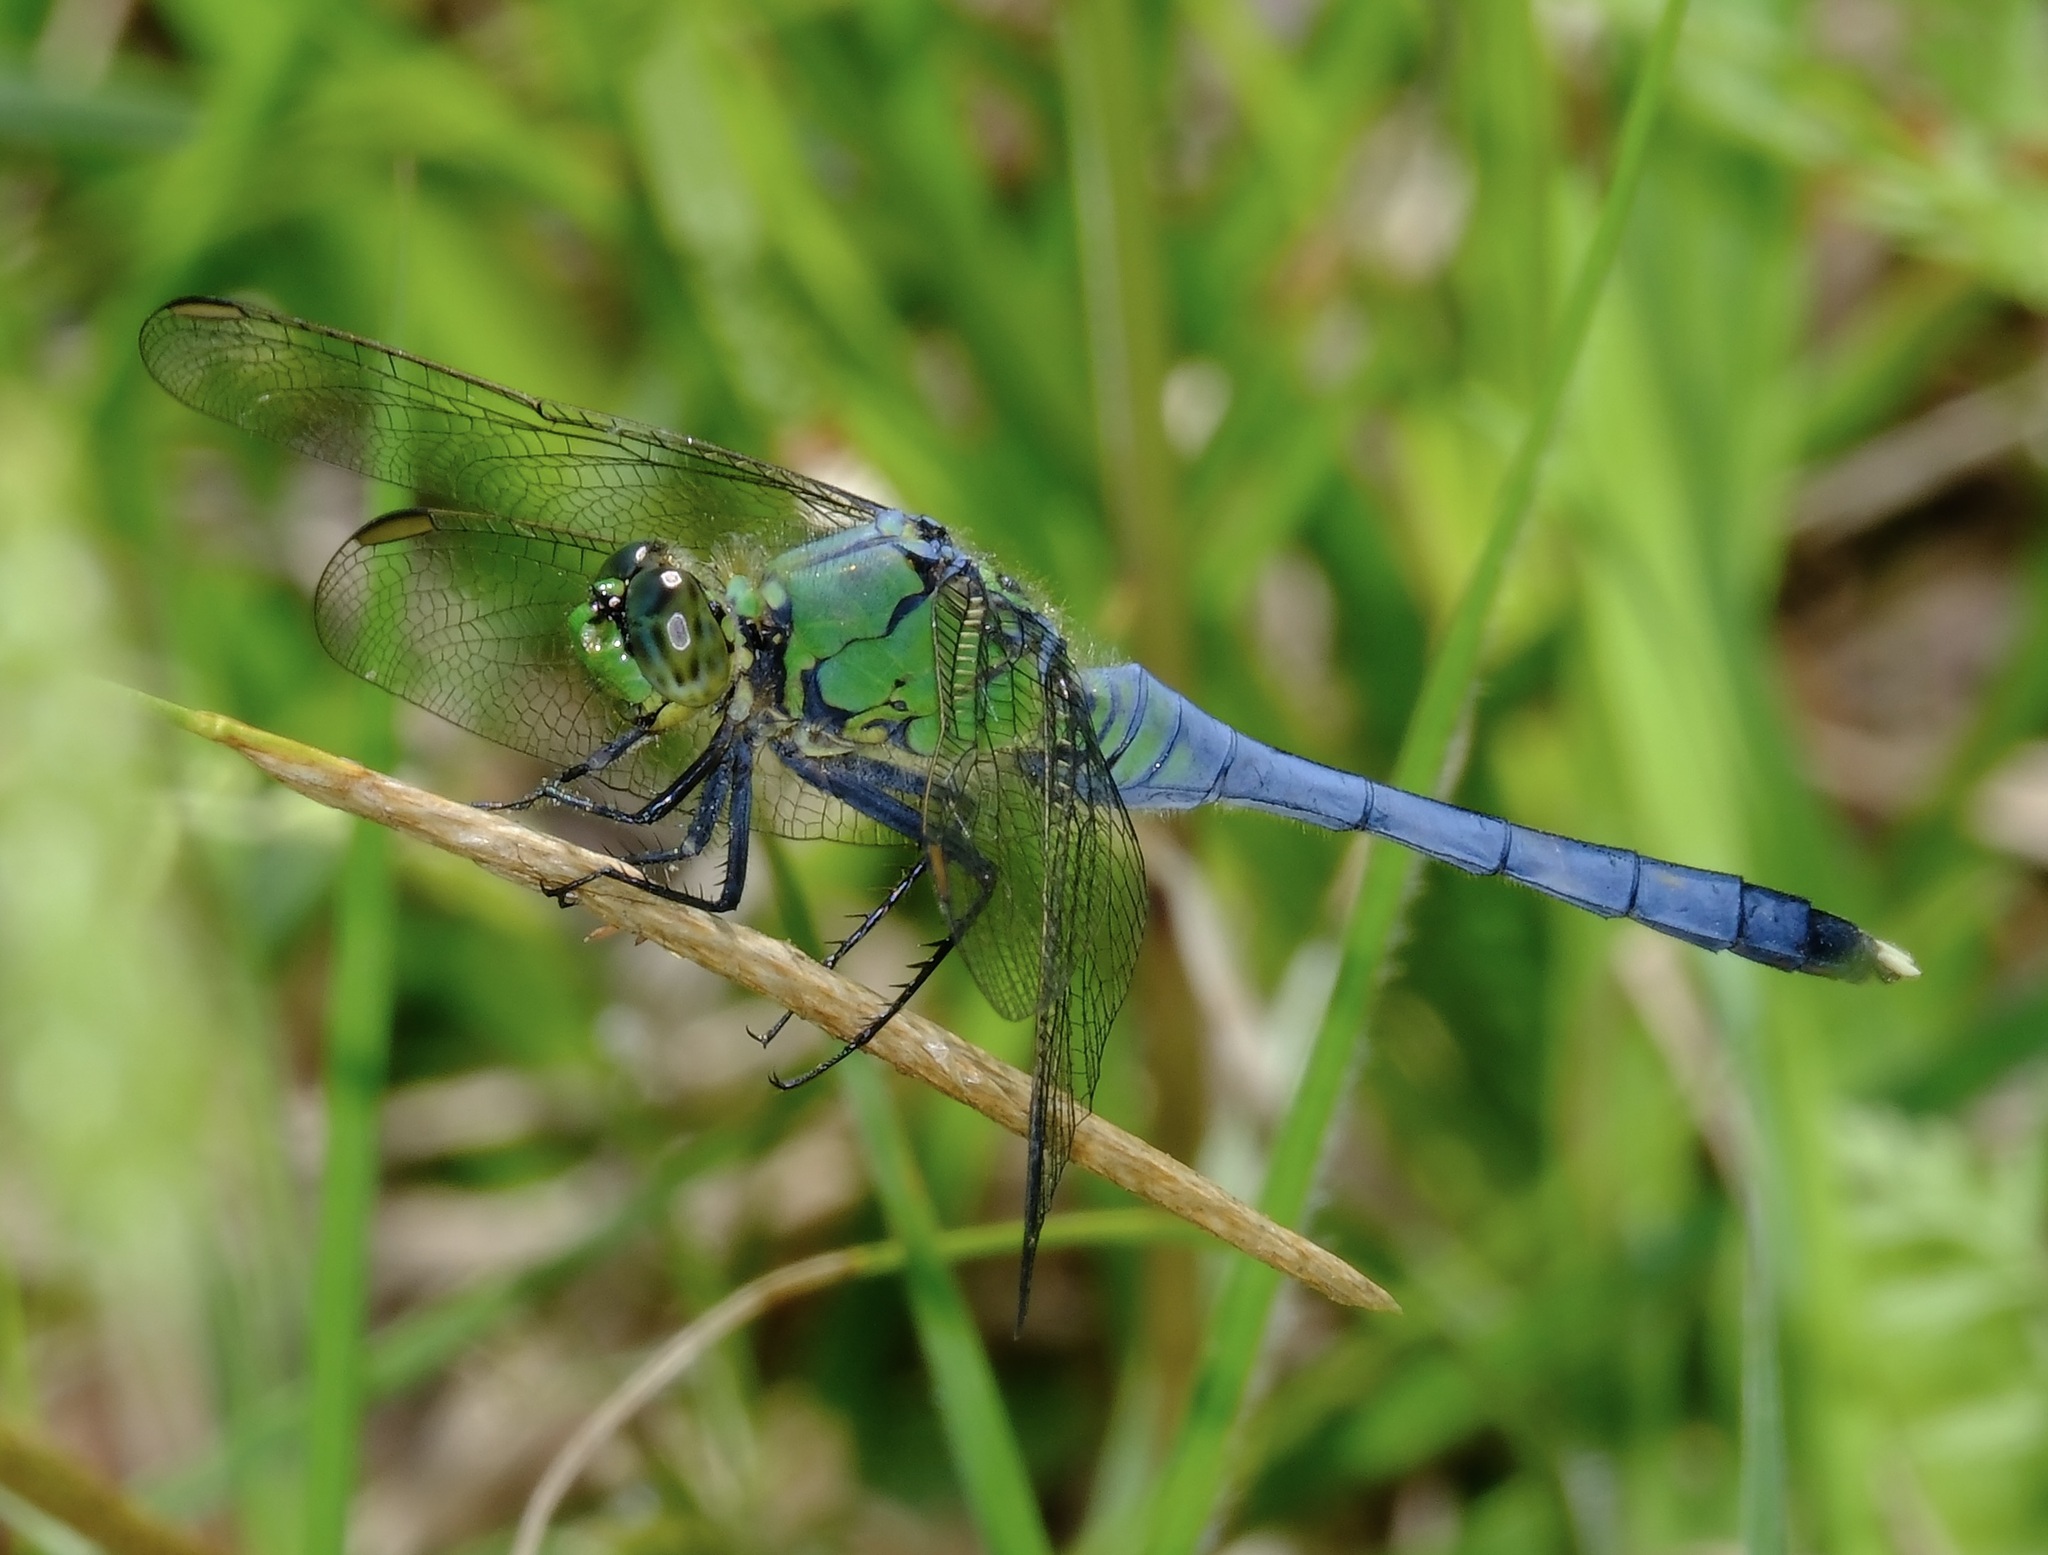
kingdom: Animalia
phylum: Arthropoda
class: Insecta
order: Odonata
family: Libellulidae
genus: Erythemis
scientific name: Erythemis simplicicollis
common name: Eastern pondhawk
